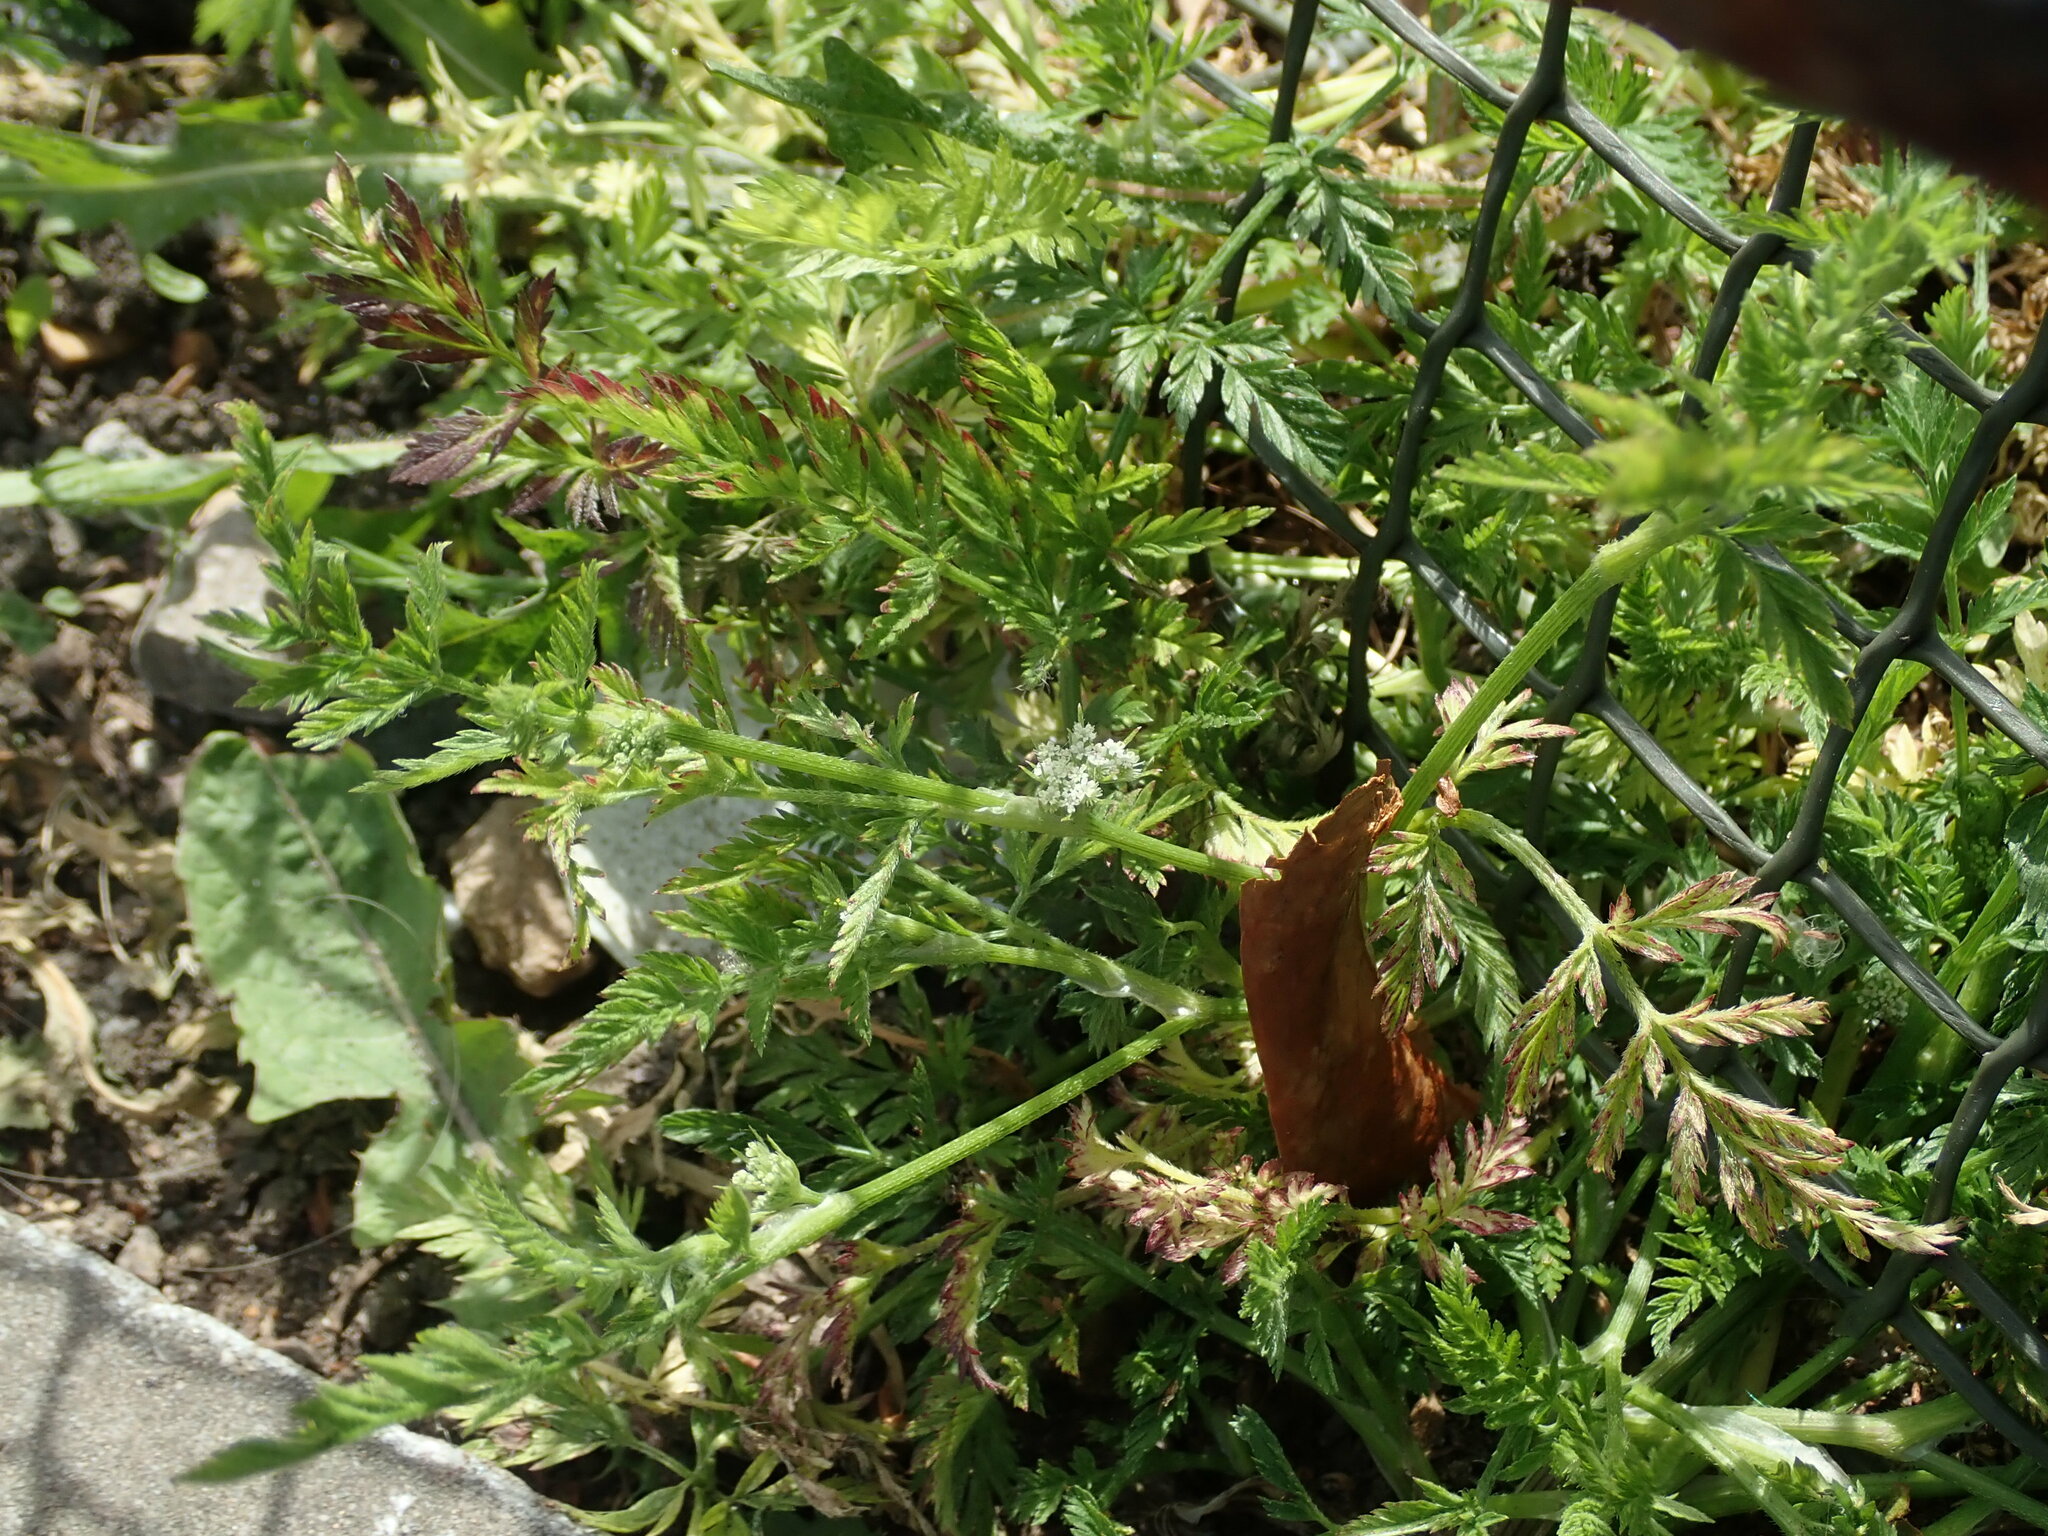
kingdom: Plantae
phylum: Tracheophyta
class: Magnoliopsida
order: Apiales
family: Apiaceae
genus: Torilis
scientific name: Torilis nodosa
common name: Knotted hedge-parsley
